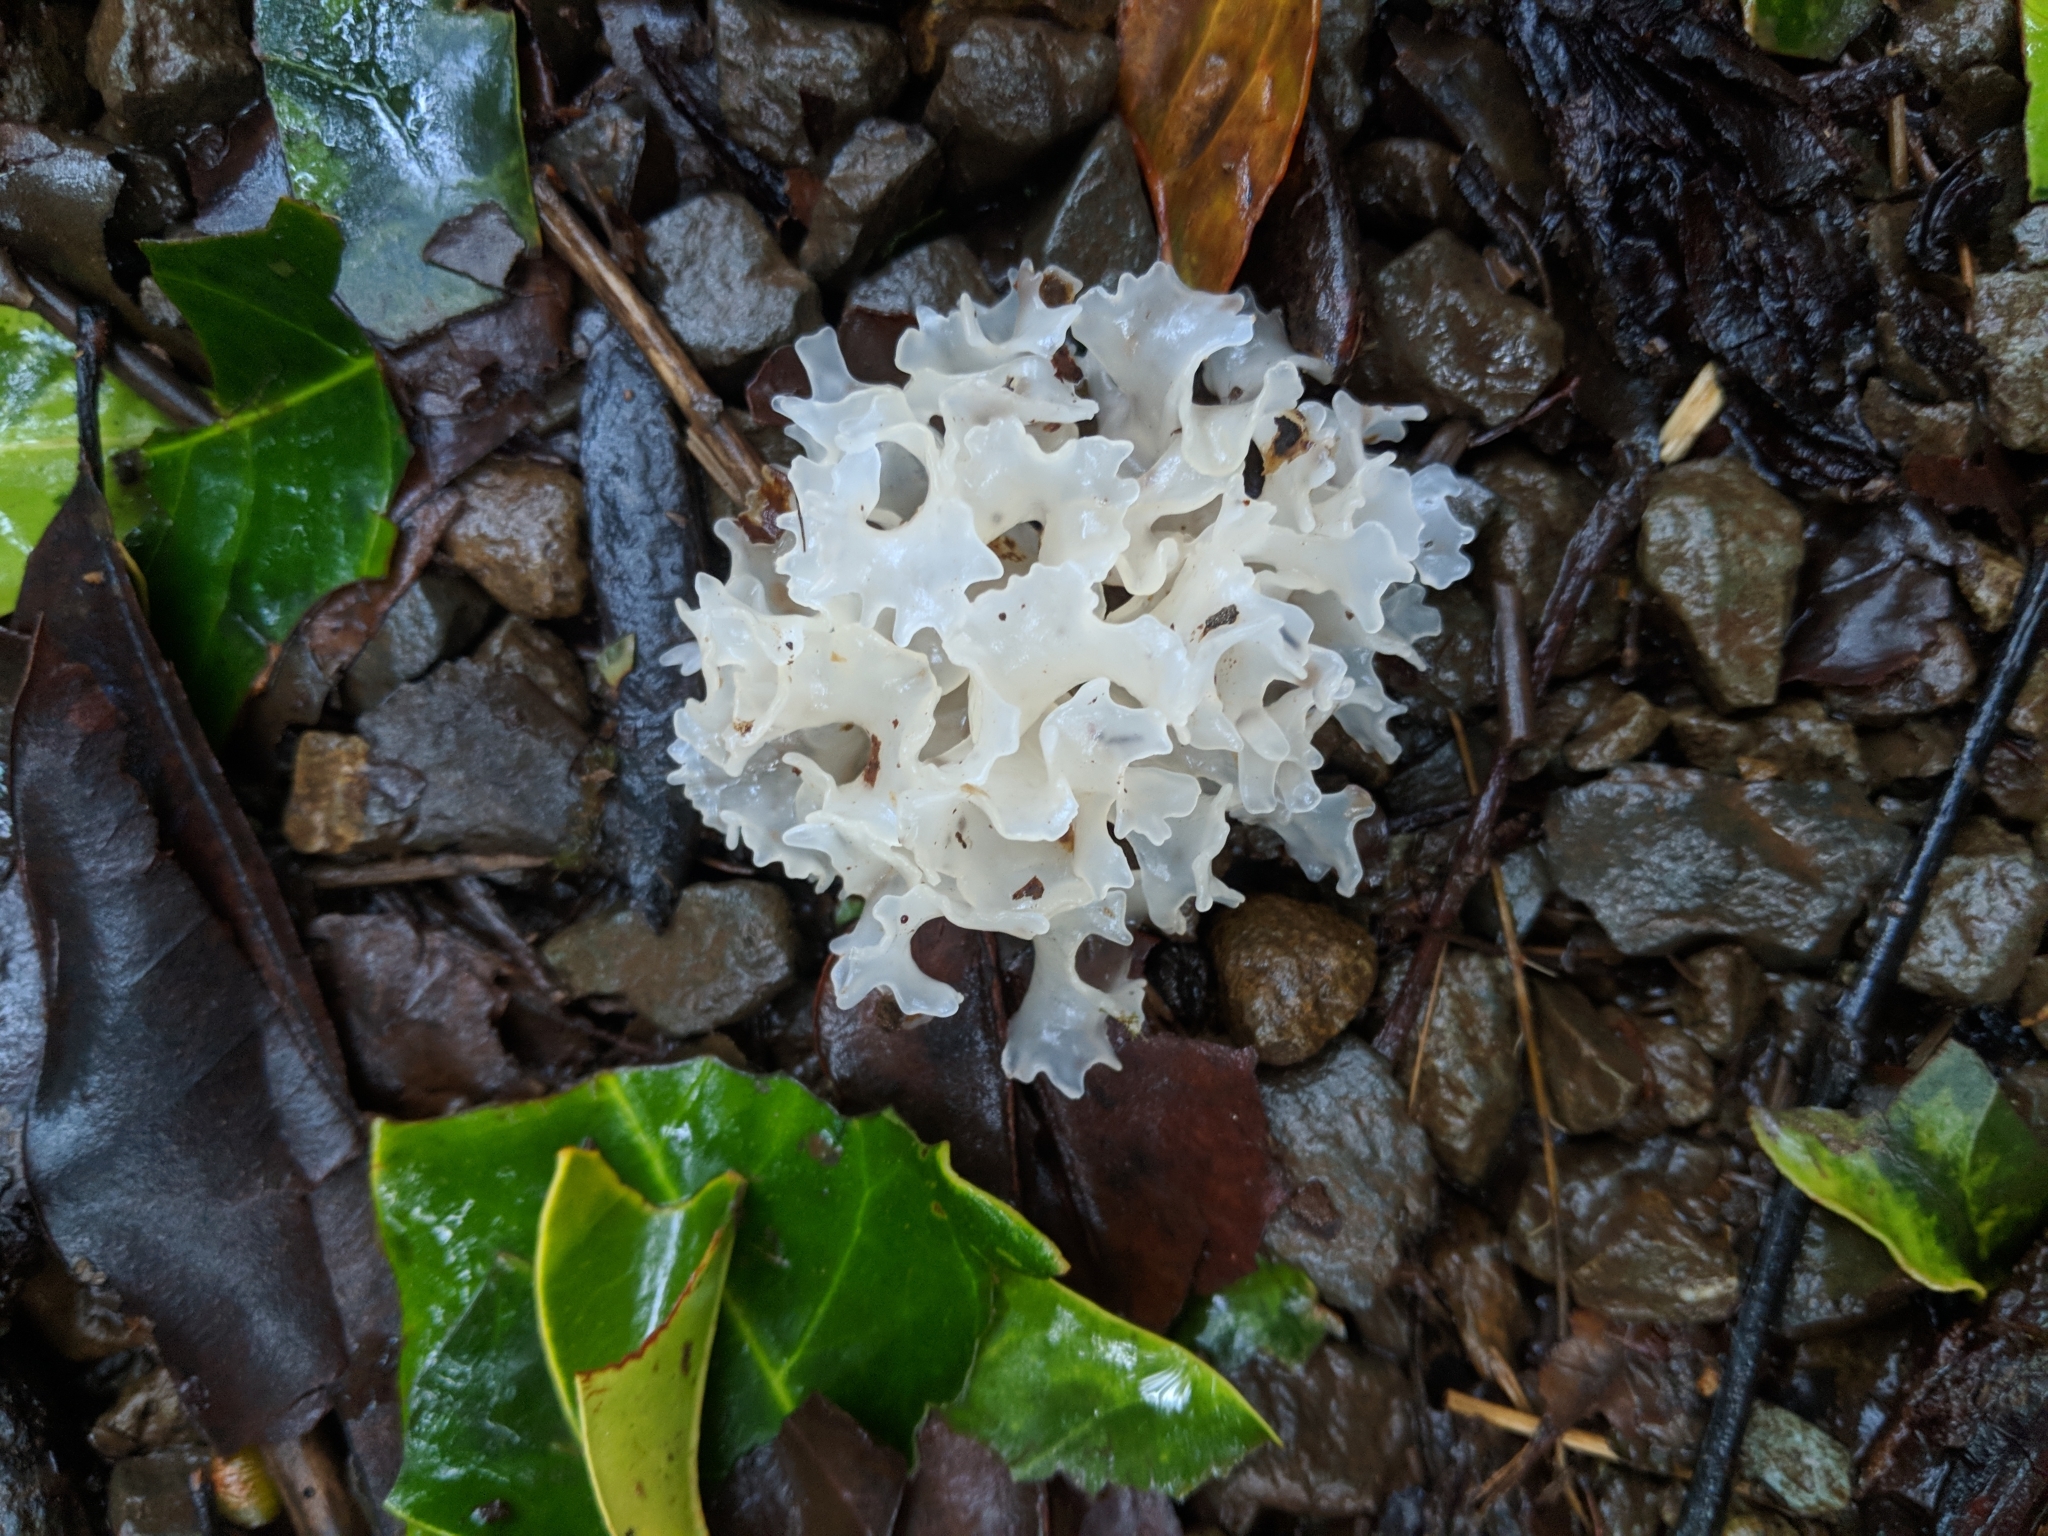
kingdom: Fungi
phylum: Basidiomycota
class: Tremellomycetes
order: Tremellales
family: Tremellaceae
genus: Tremella
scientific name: Tremella fuciformis
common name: Snow fungus
